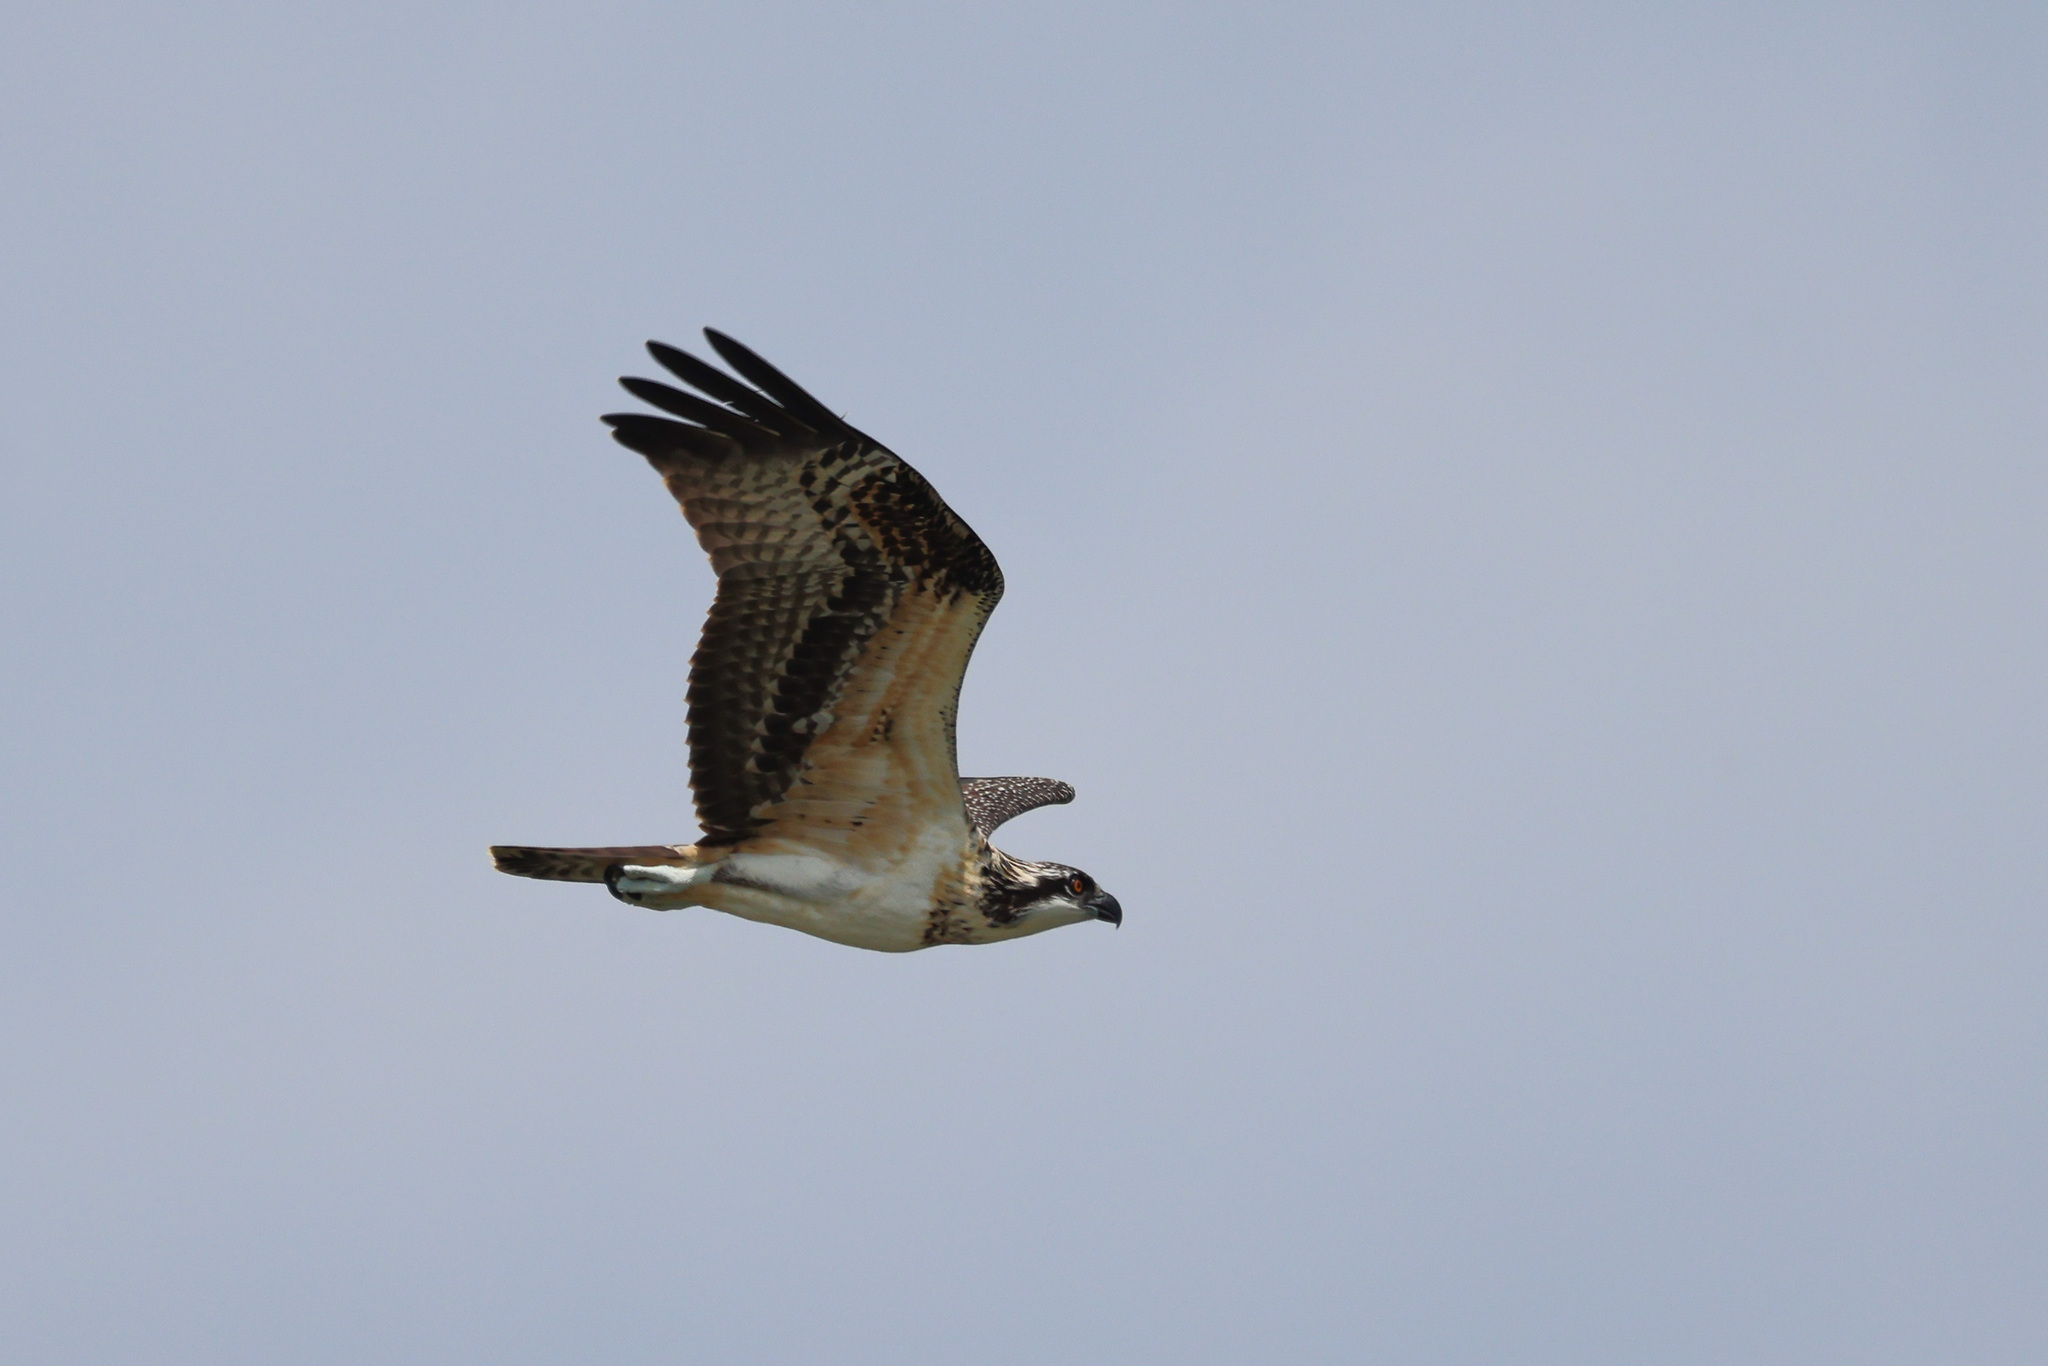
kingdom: Animalia
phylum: Chordata
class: Aves
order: Accipitriformes
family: Pandionidae
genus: Pandion
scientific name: Pandion haliaetus
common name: Osprey
